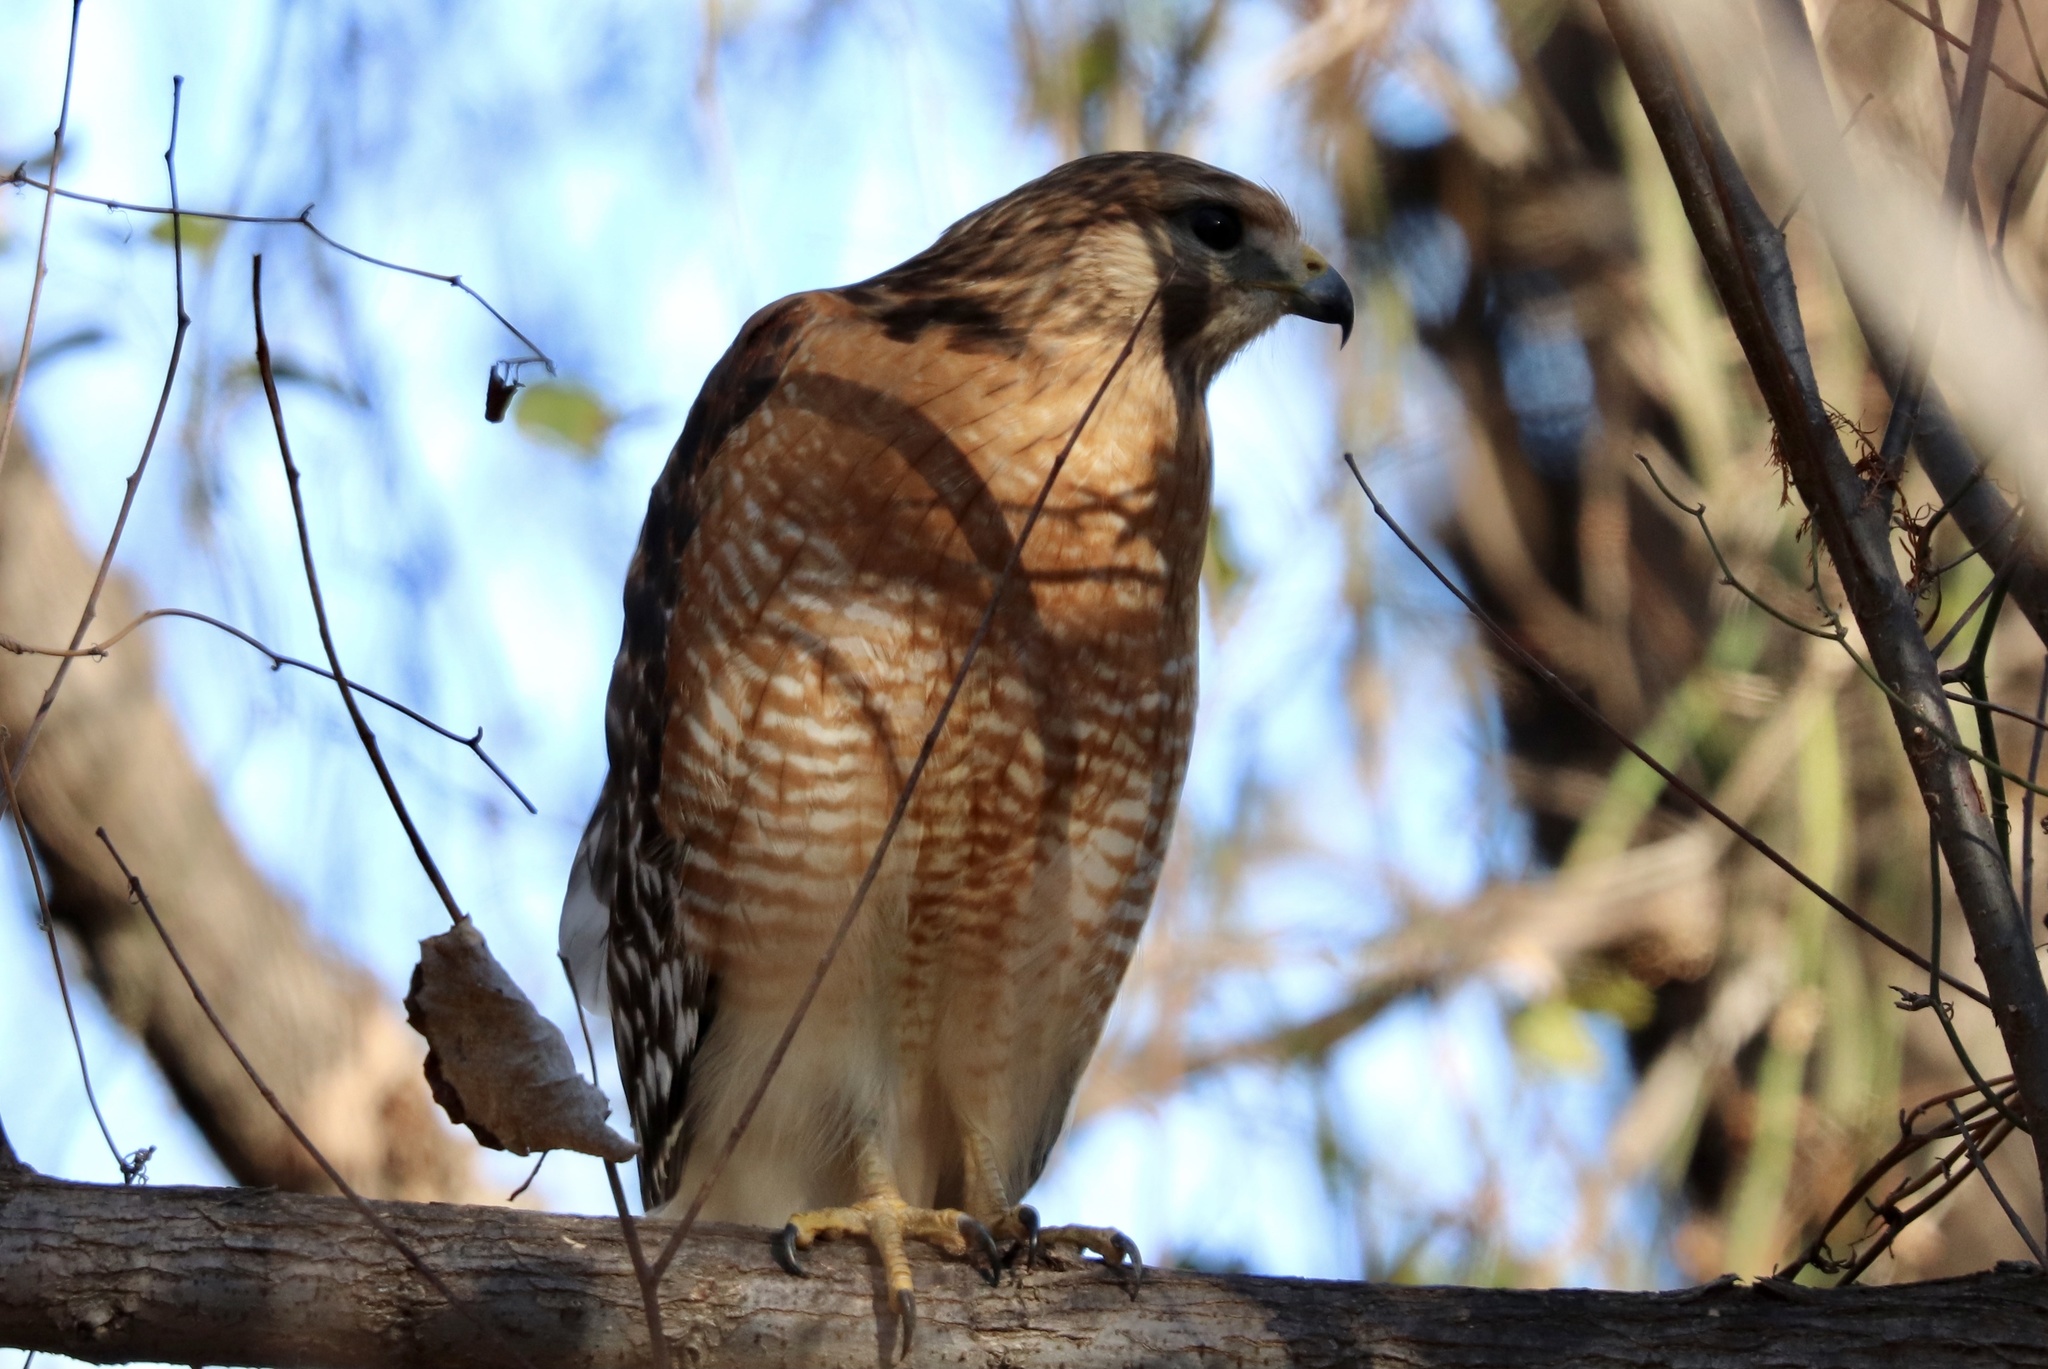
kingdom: Animalia
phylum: Chordata
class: Aves
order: Accipitriformes
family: Accipitridae
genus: Buteo
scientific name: Buteo lineatus
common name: Red-shouldered hawk
